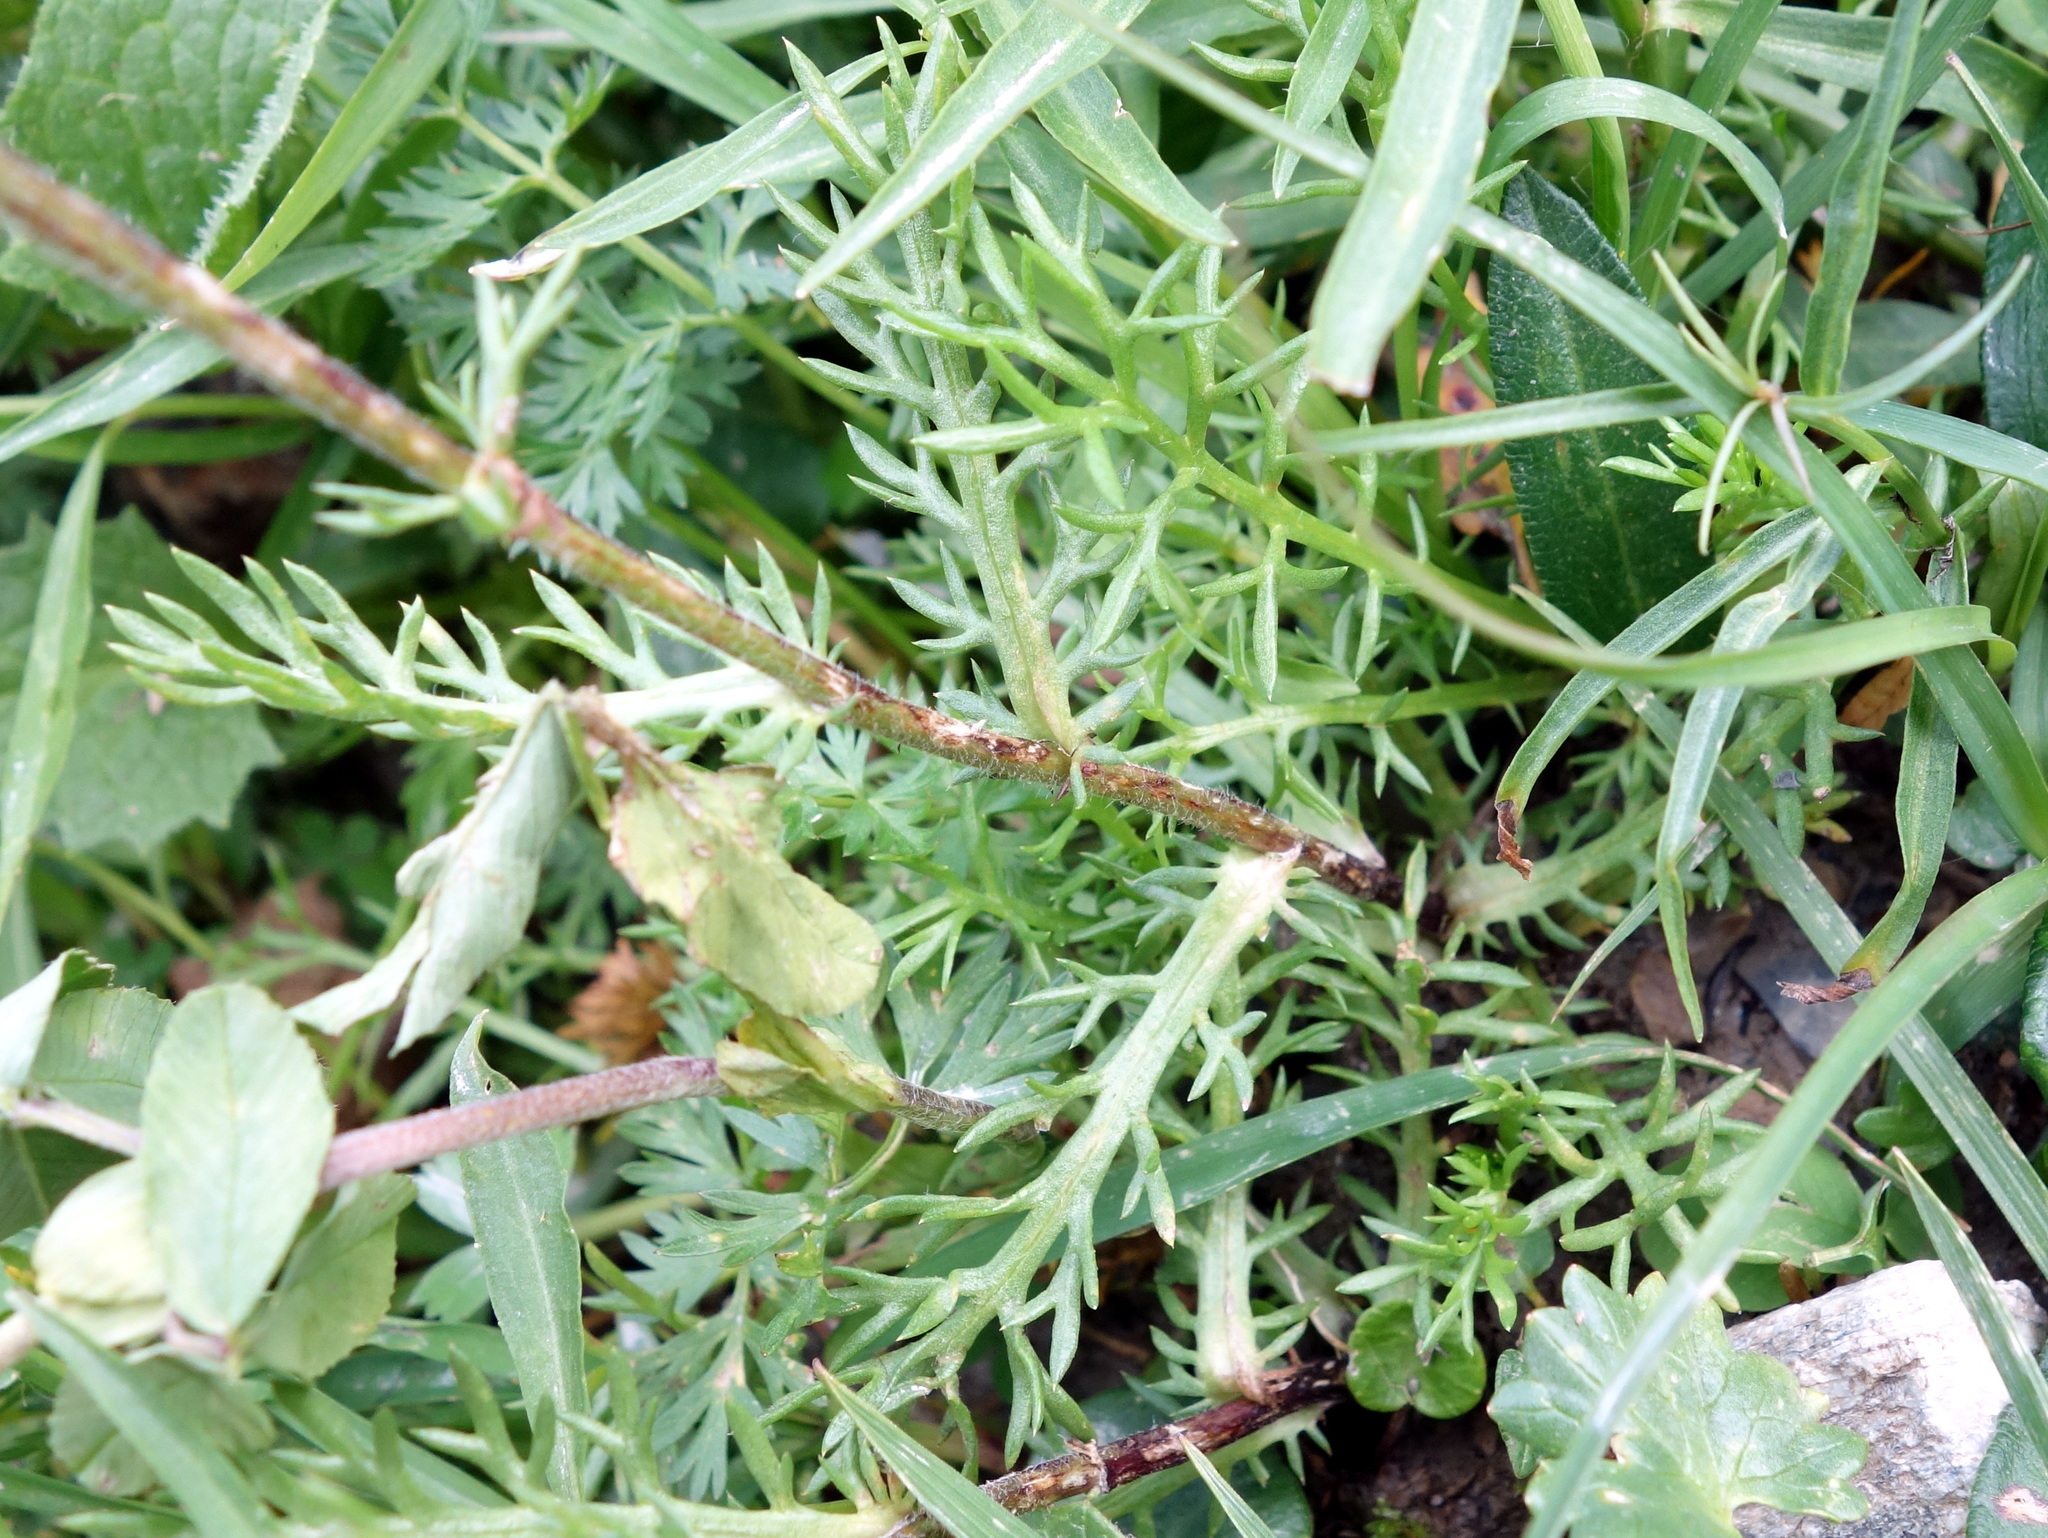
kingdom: Plantae
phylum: Tracheophyta
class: Magnoliopsida
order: Asterales
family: Asteraceae
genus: Achillea
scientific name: Achillea atrata
